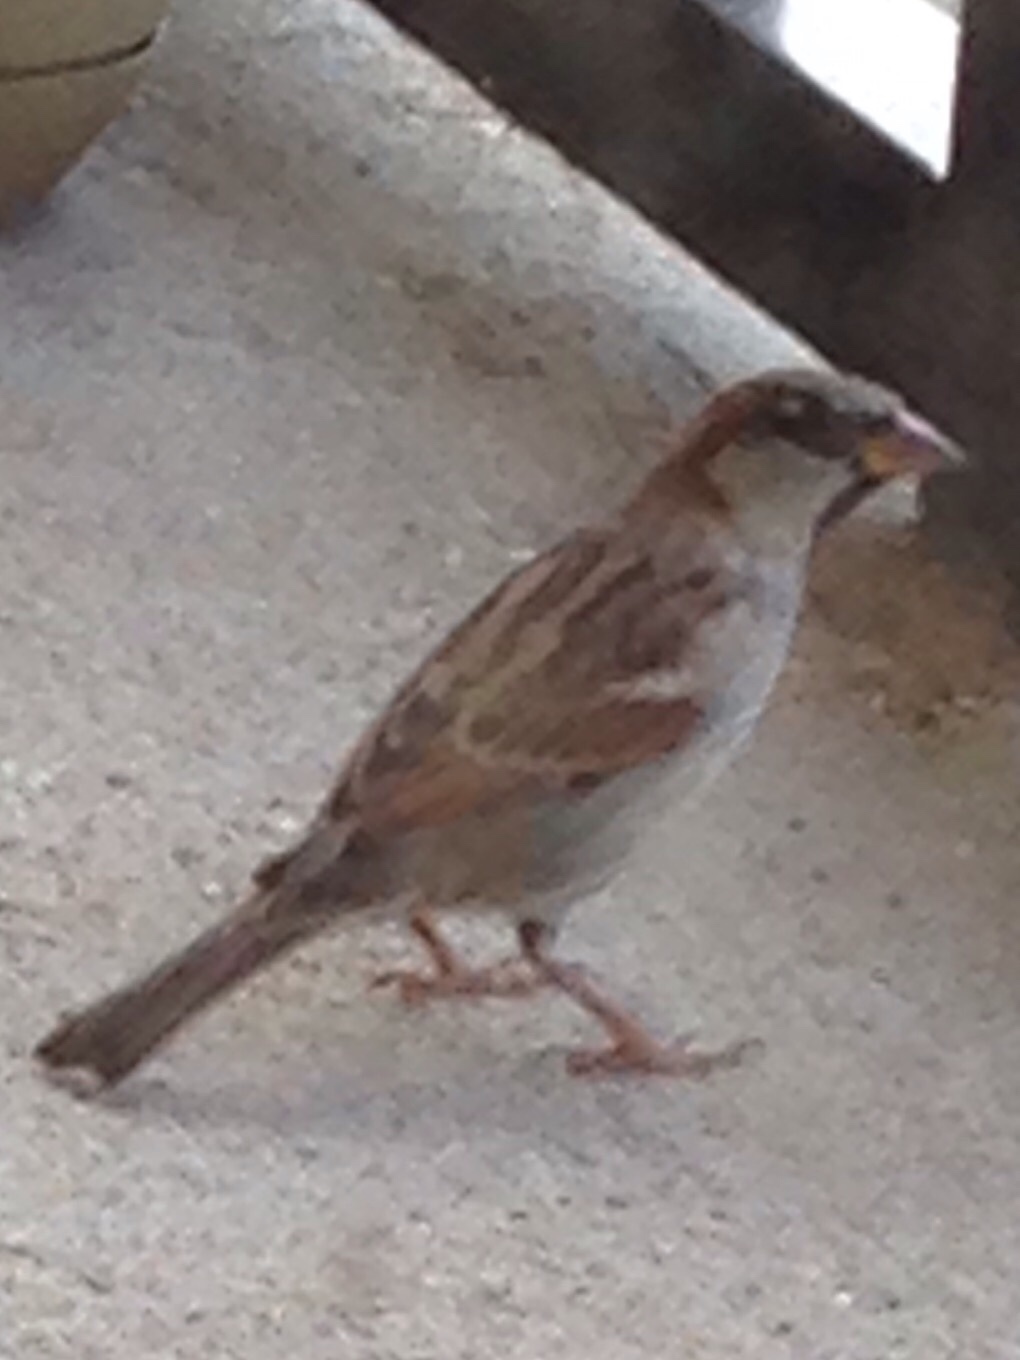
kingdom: Animalia
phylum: Chordata
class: Aves
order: Passeriformes
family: Passeridae
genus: Passer
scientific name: Passer domesticus
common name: House sparrow
